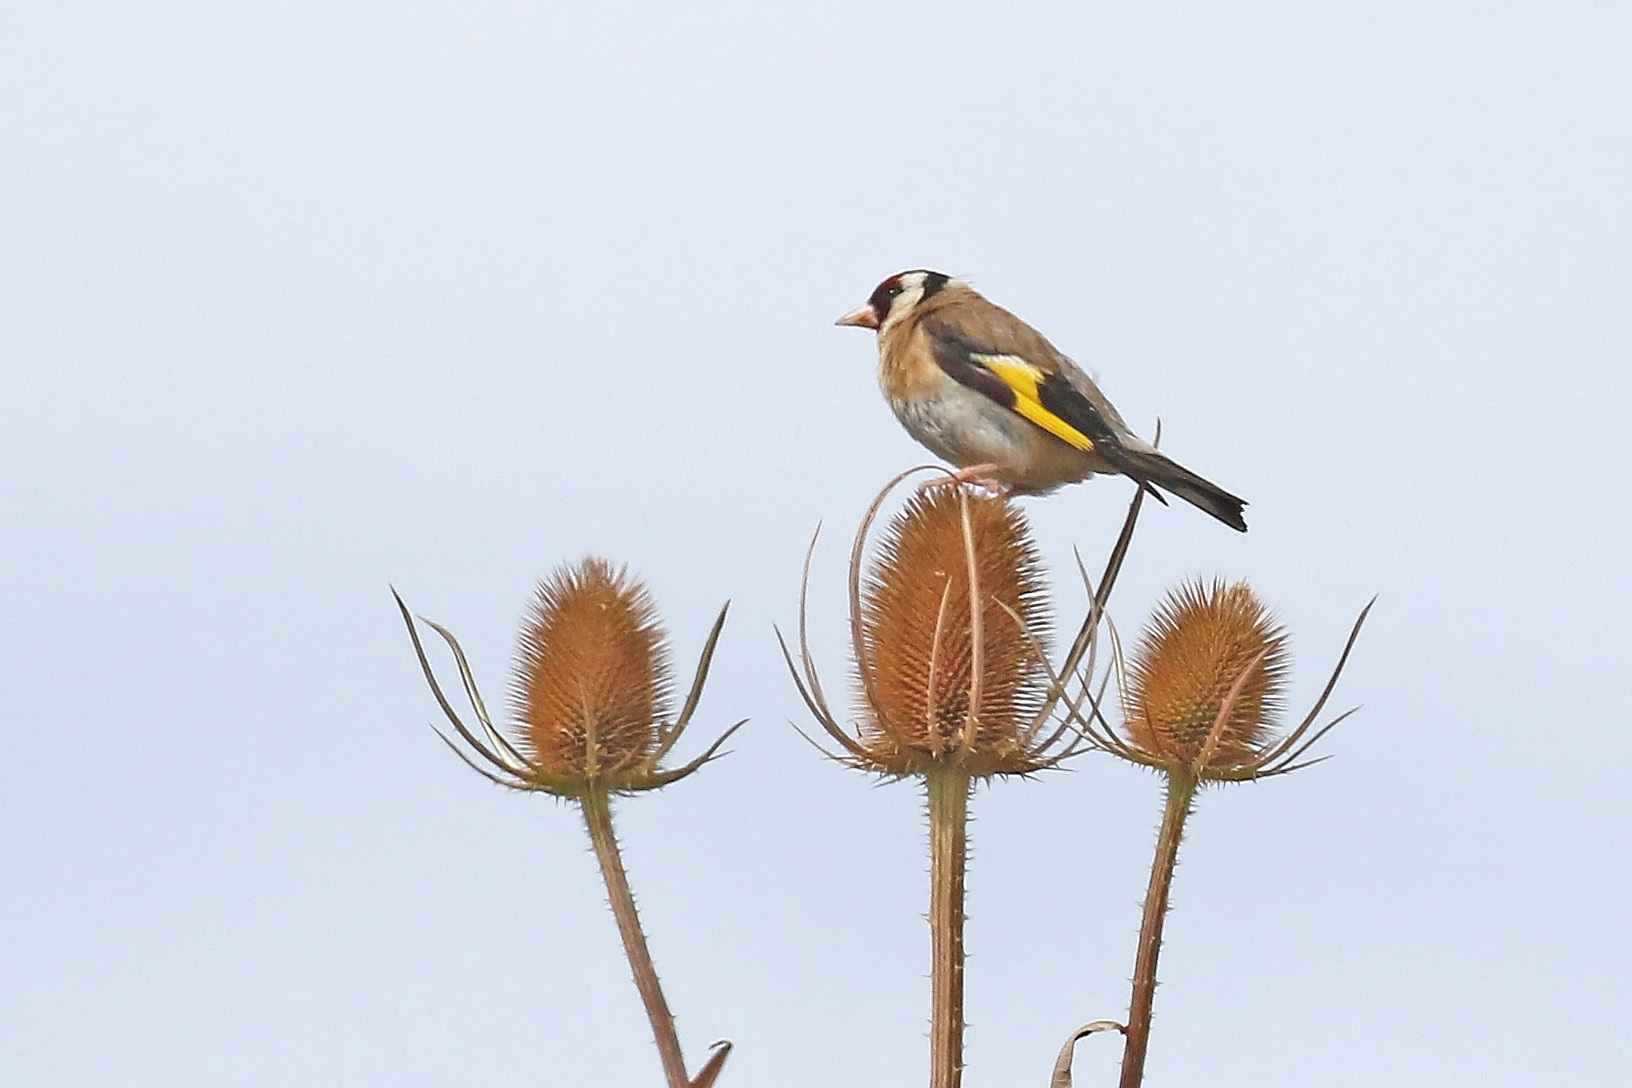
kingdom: Animalia
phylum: Chordata
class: Aves
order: Passeriformes
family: Fringillidae
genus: Carduelis
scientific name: Carduelis carduelis
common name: European goldfinch
